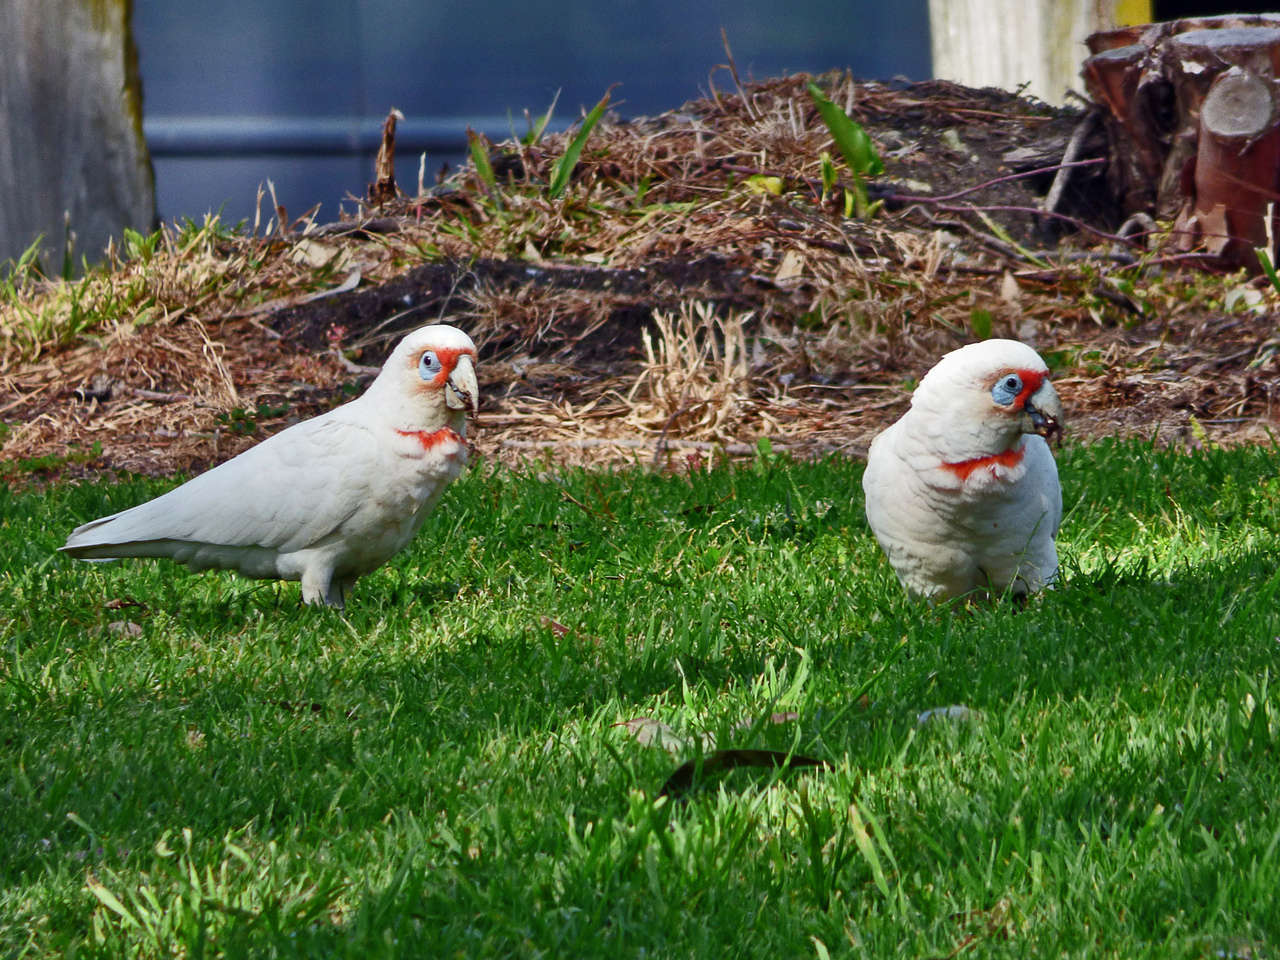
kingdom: Animalia
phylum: Chordata
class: Aves
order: Psittaciformes
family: Psittacidae
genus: Cacatua
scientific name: Cacatua tenuirostris
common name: Long-billed corella
